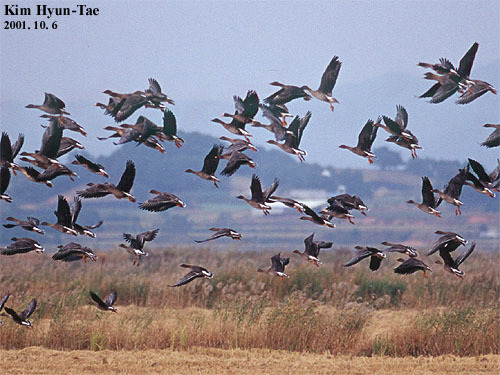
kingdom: Animalia
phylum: Chordata
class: Aves
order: Anseriformes
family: Anatidae
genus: Anser
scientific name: Anser albifrons
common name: Greater white-fronted goose
